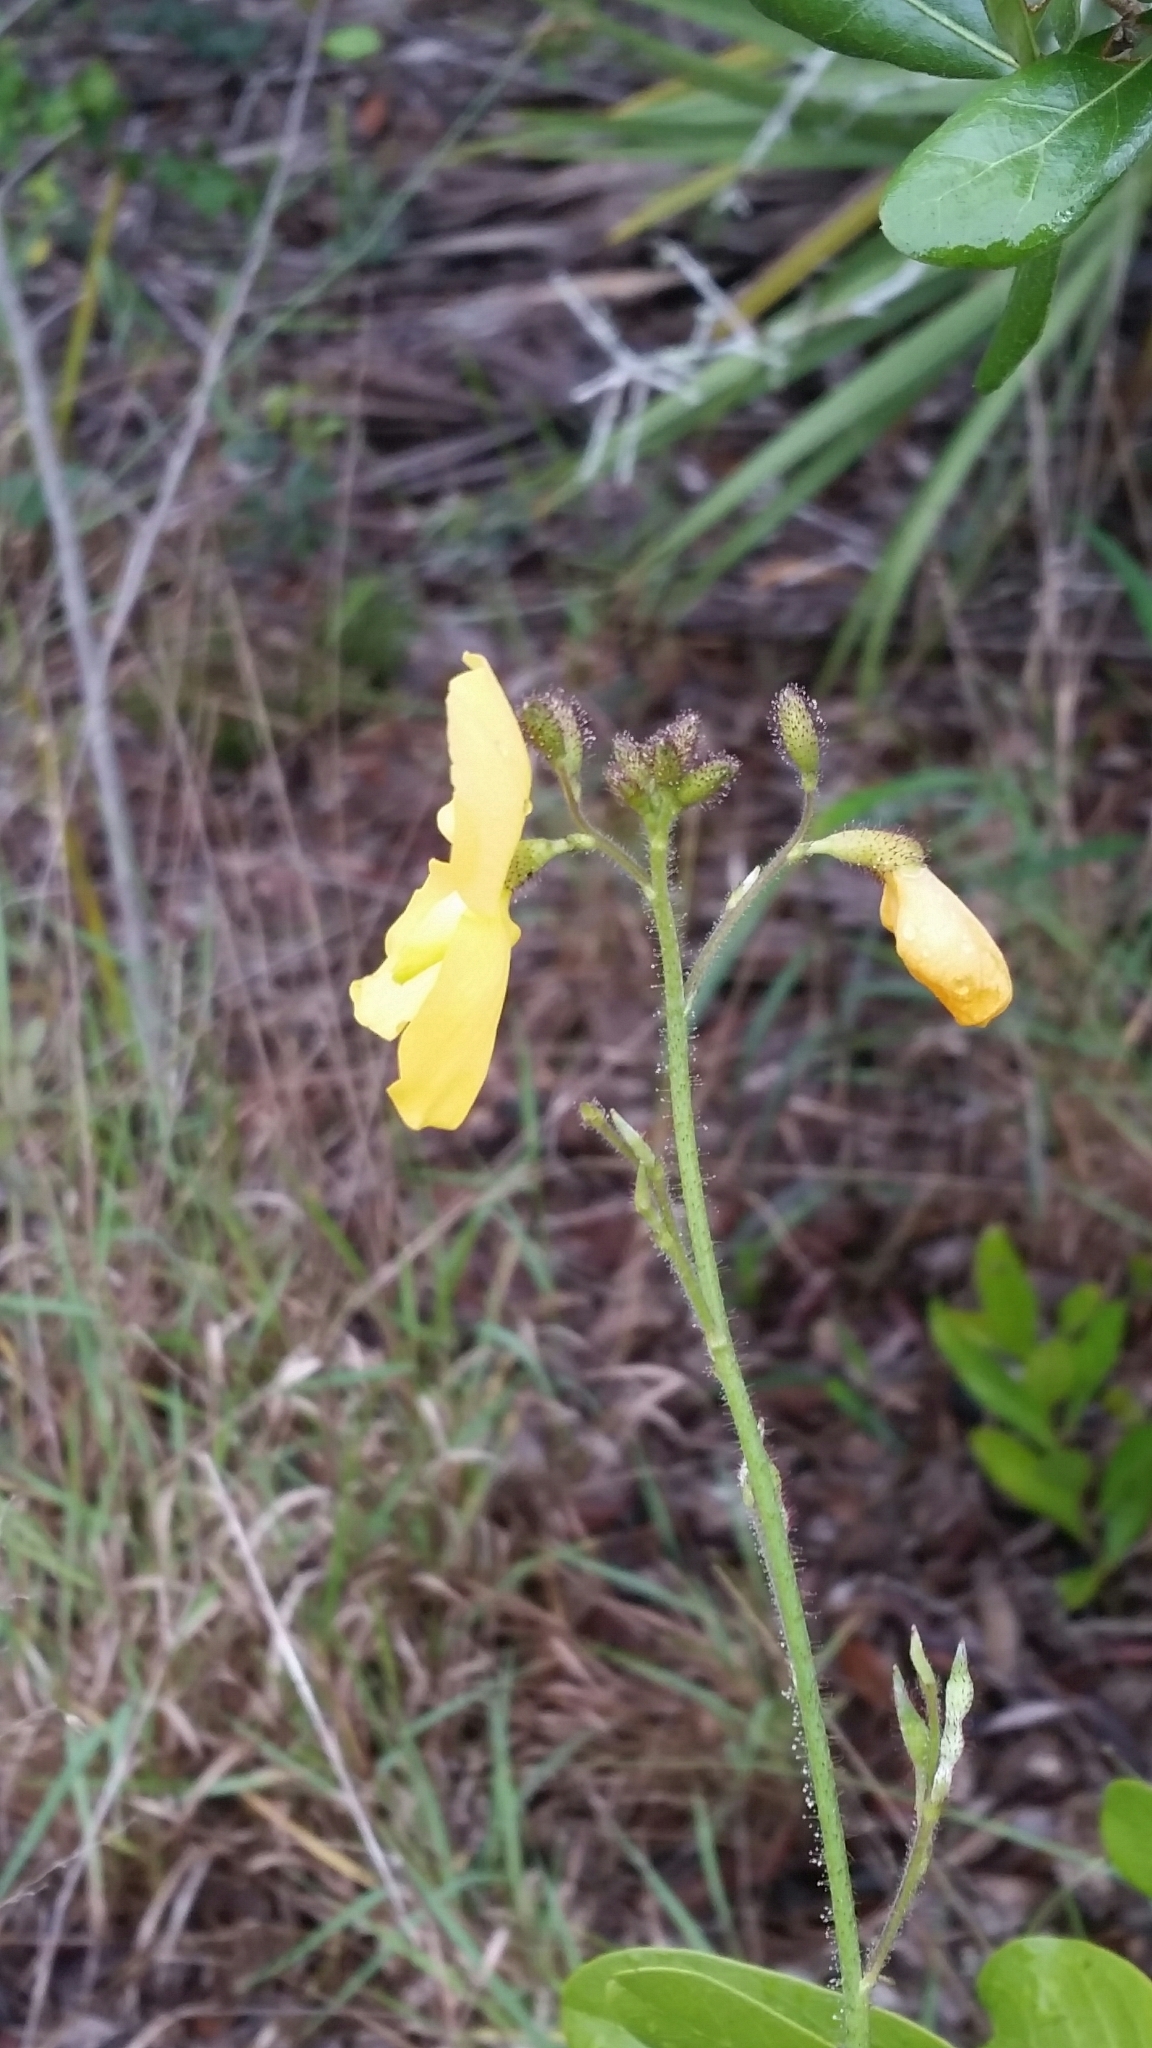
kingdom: Plantae
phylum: Tracheophyta
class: Magnoliopsida
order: Fabales
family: Fabaceae
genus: Chapmannia
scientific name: Chapmannia floridana
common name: Alicia
